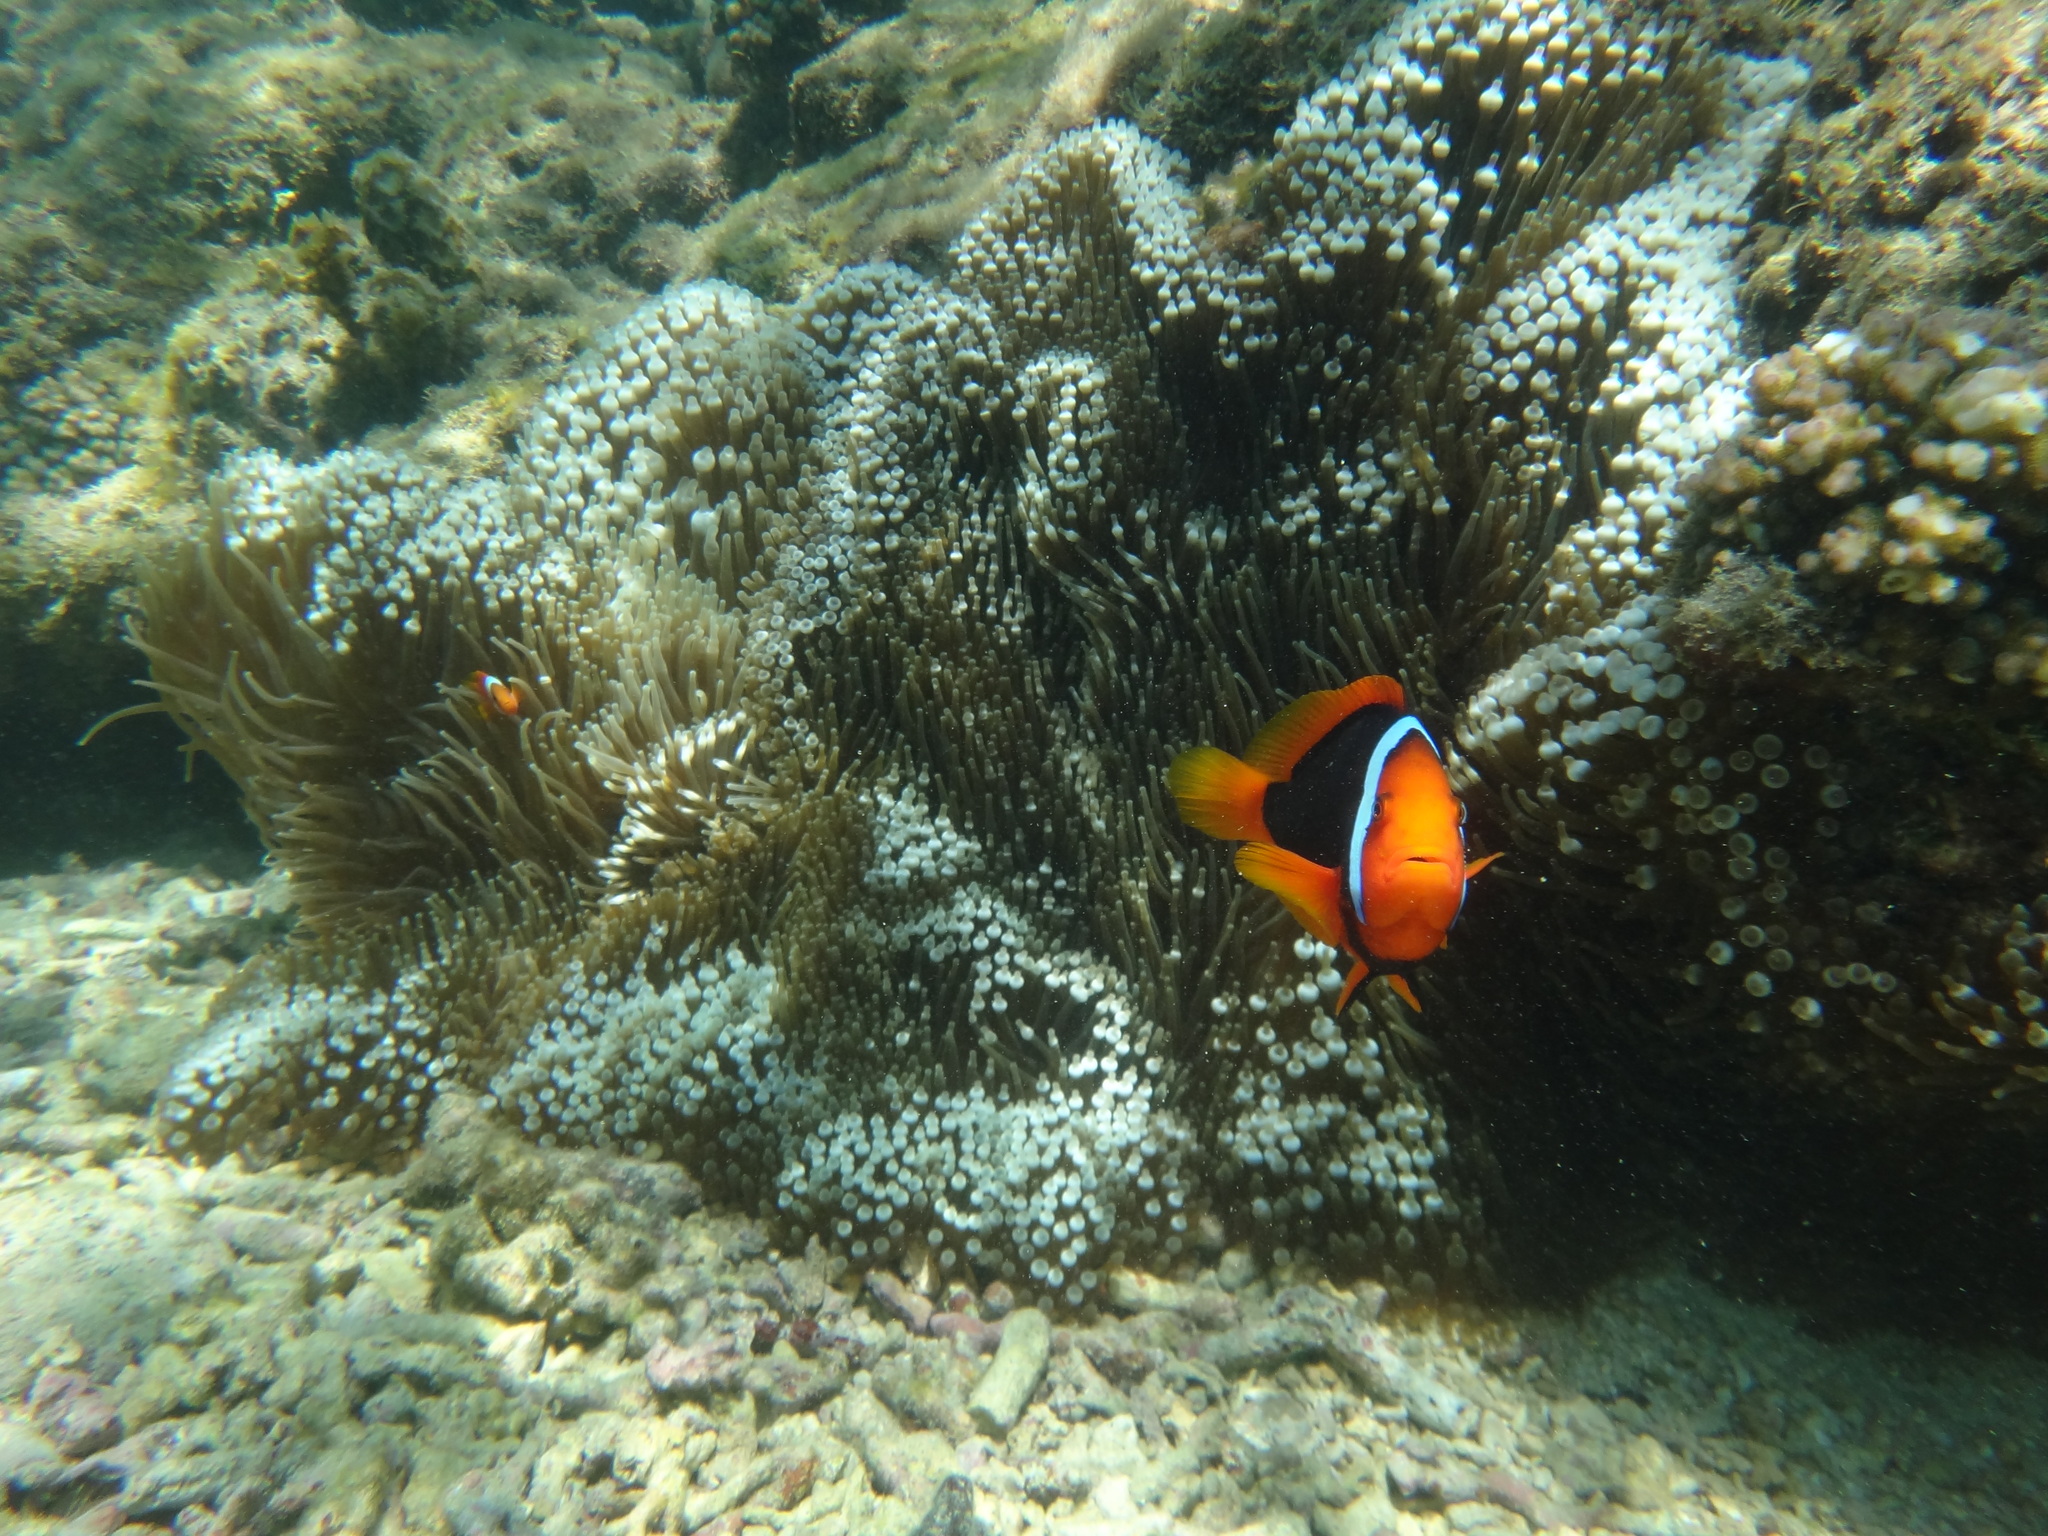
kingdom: Animalia
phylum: Chordata
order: Perciformes
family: Pomacentridae
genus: Amphiprion
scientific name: Amphiprion frenatus
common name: Tomato anemonefish
